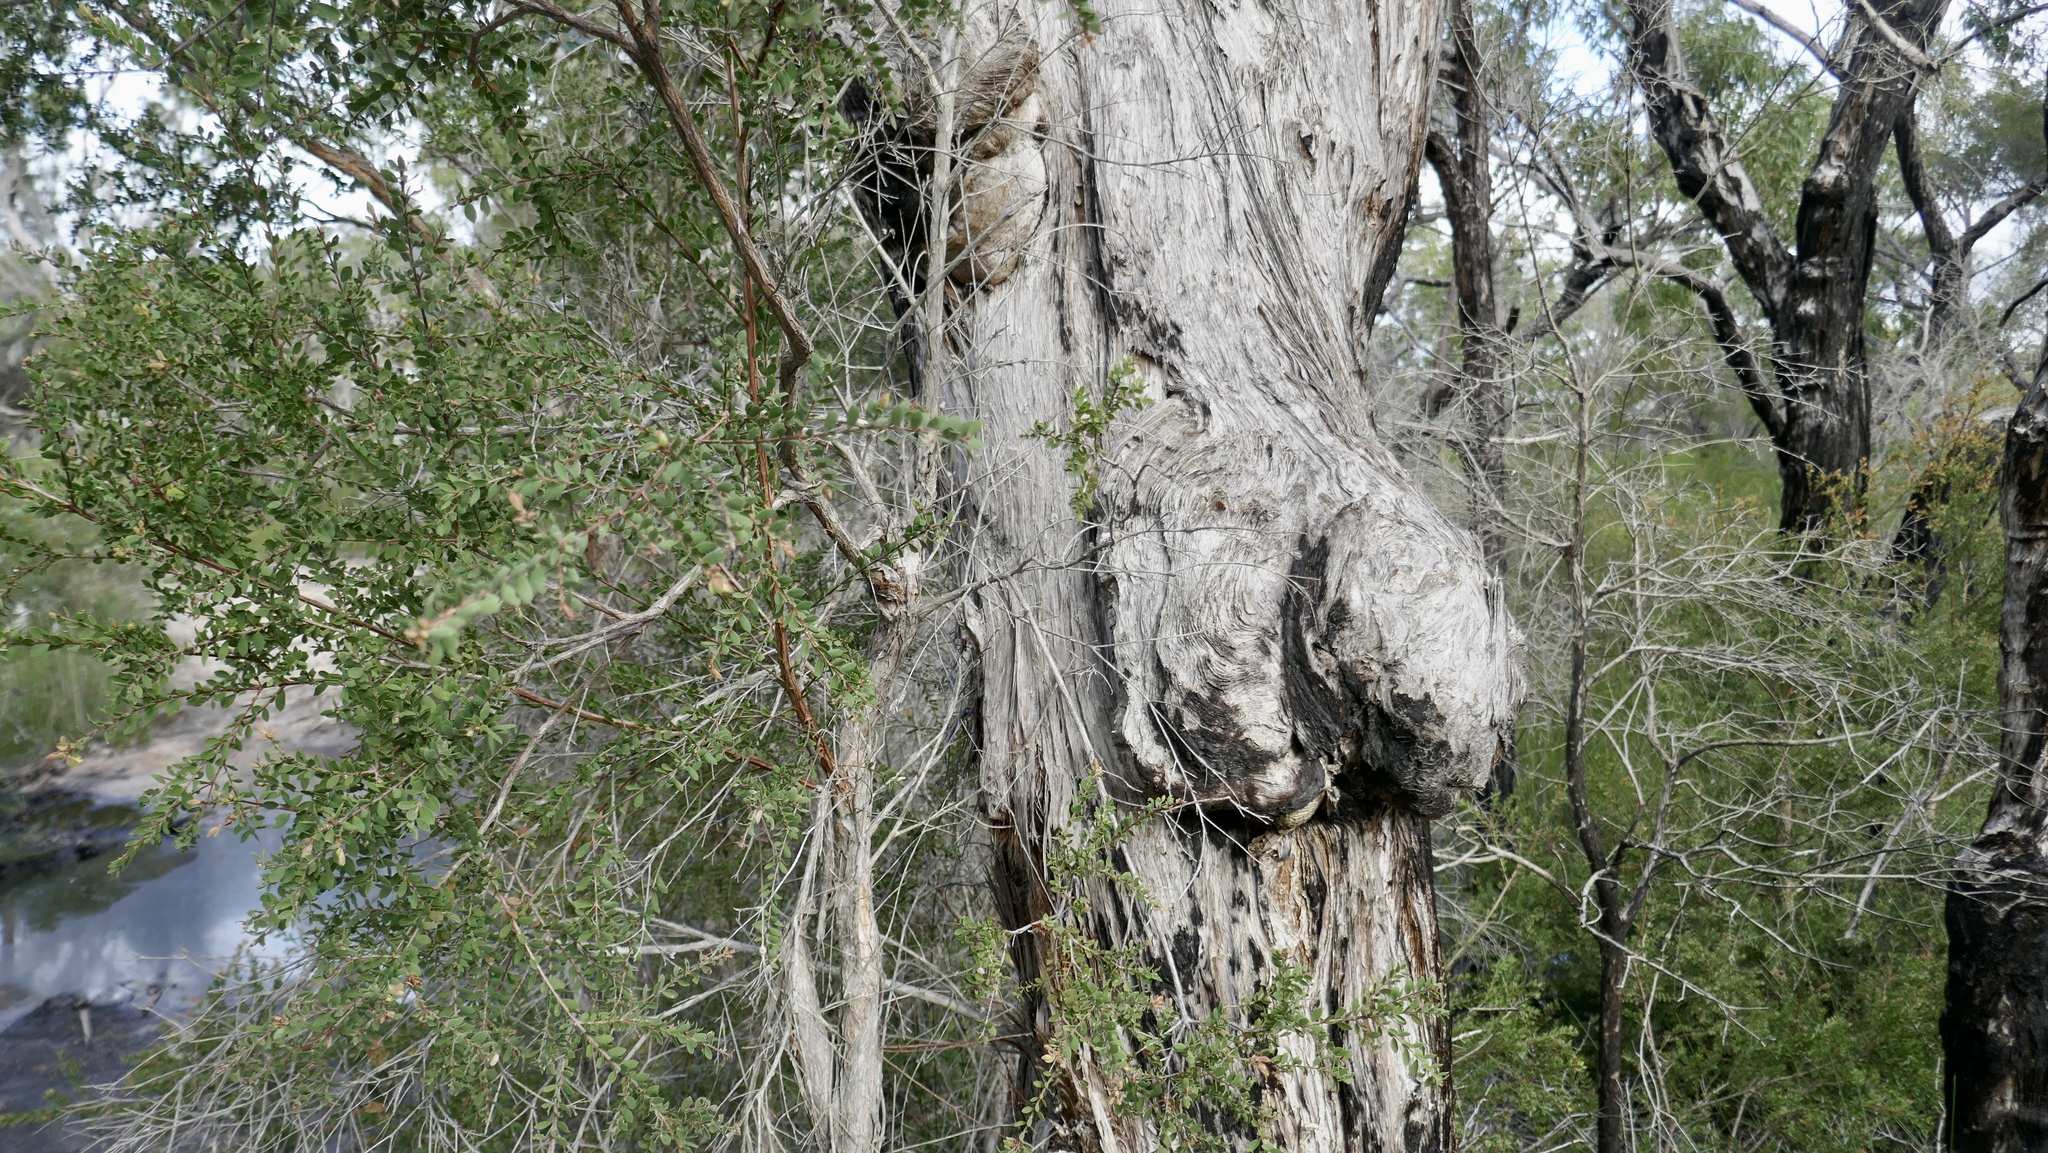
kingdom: Plantae
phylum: Tracheophyta
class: Magnoliopsida
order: Myrtales
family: Myrtaceae
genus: Melaleuca
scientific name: Melaleuca cheelii
